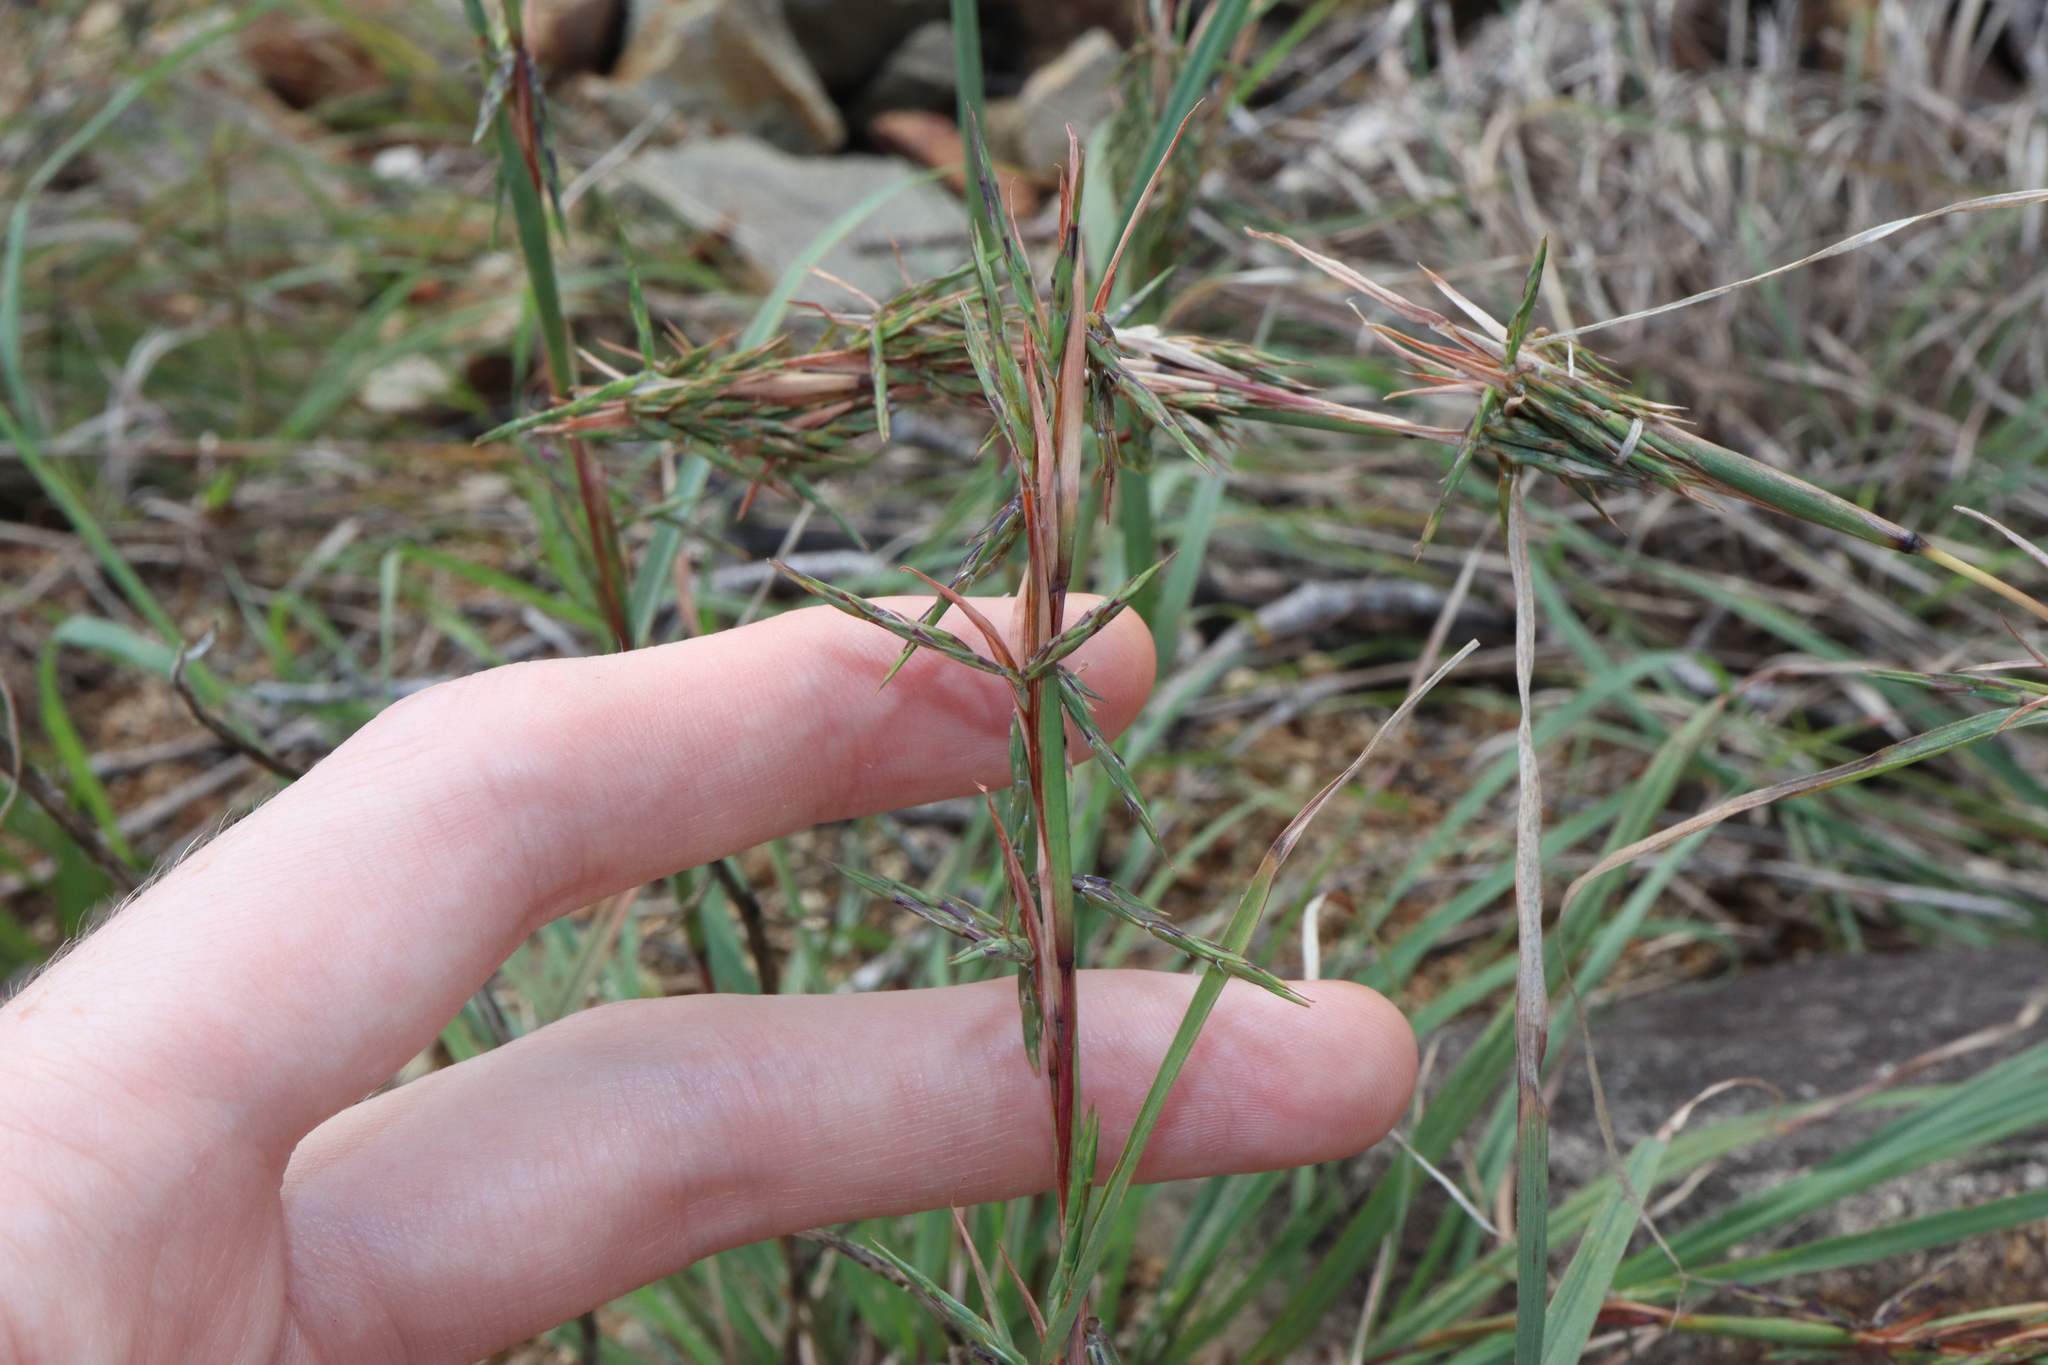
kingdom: Plantae
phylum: Tracheophyta
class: Liliopsida
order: Poales
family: Poaceae
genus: Cymbopogon
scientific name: Cymbopogon refractus
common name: Barbwire grass
